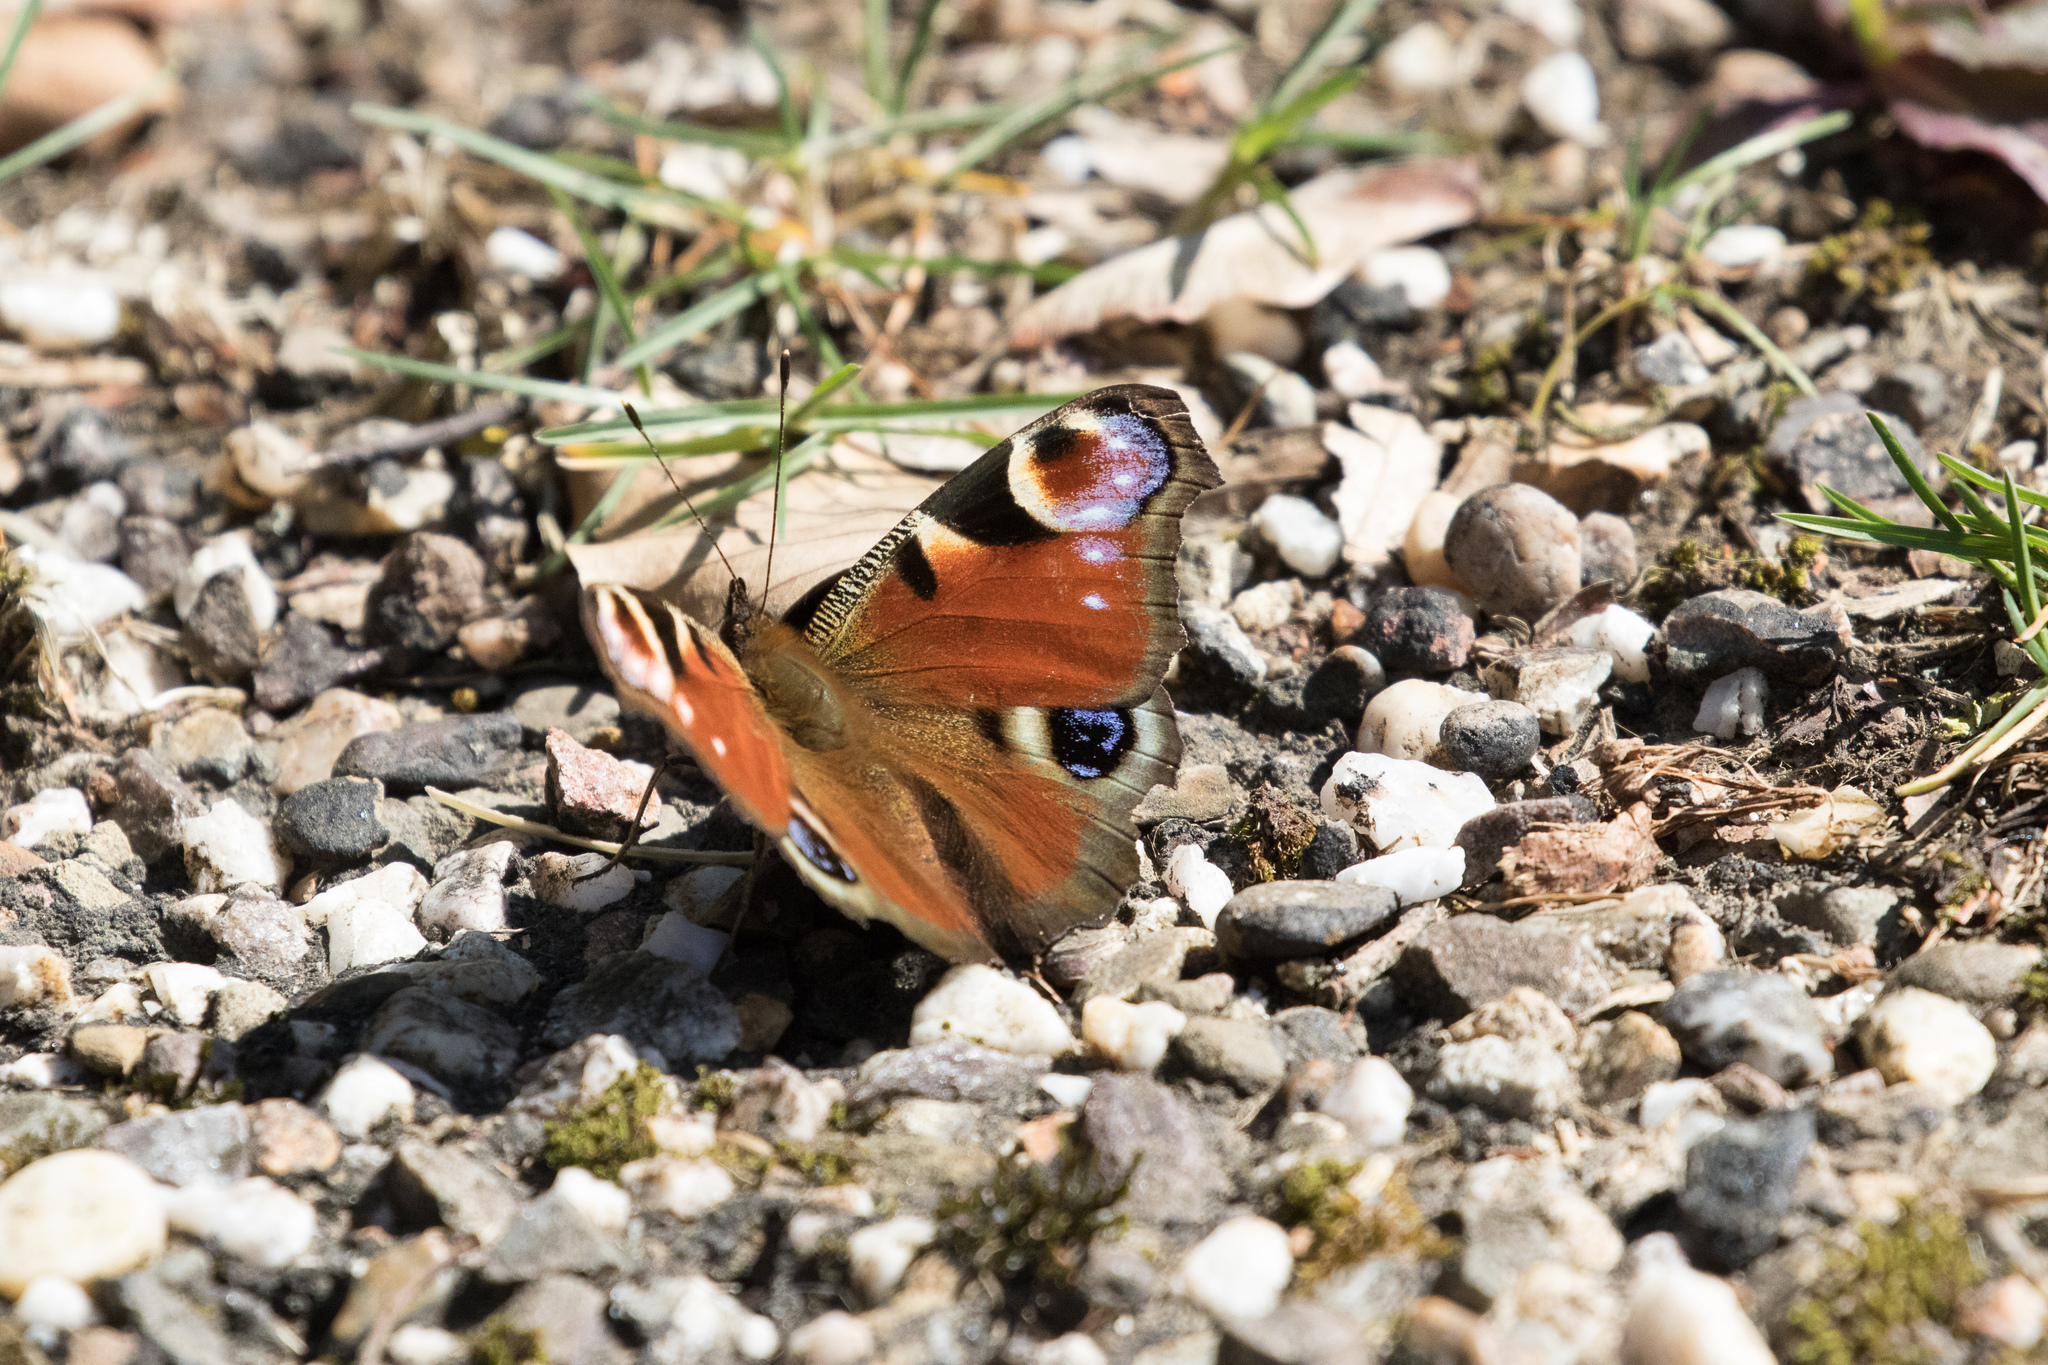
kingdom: Animalia
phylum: Arthropoda
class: Insecta
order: Lepidoptera
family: Nymphalidae
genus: Aglais
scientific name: Aglais io
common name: Peacock
